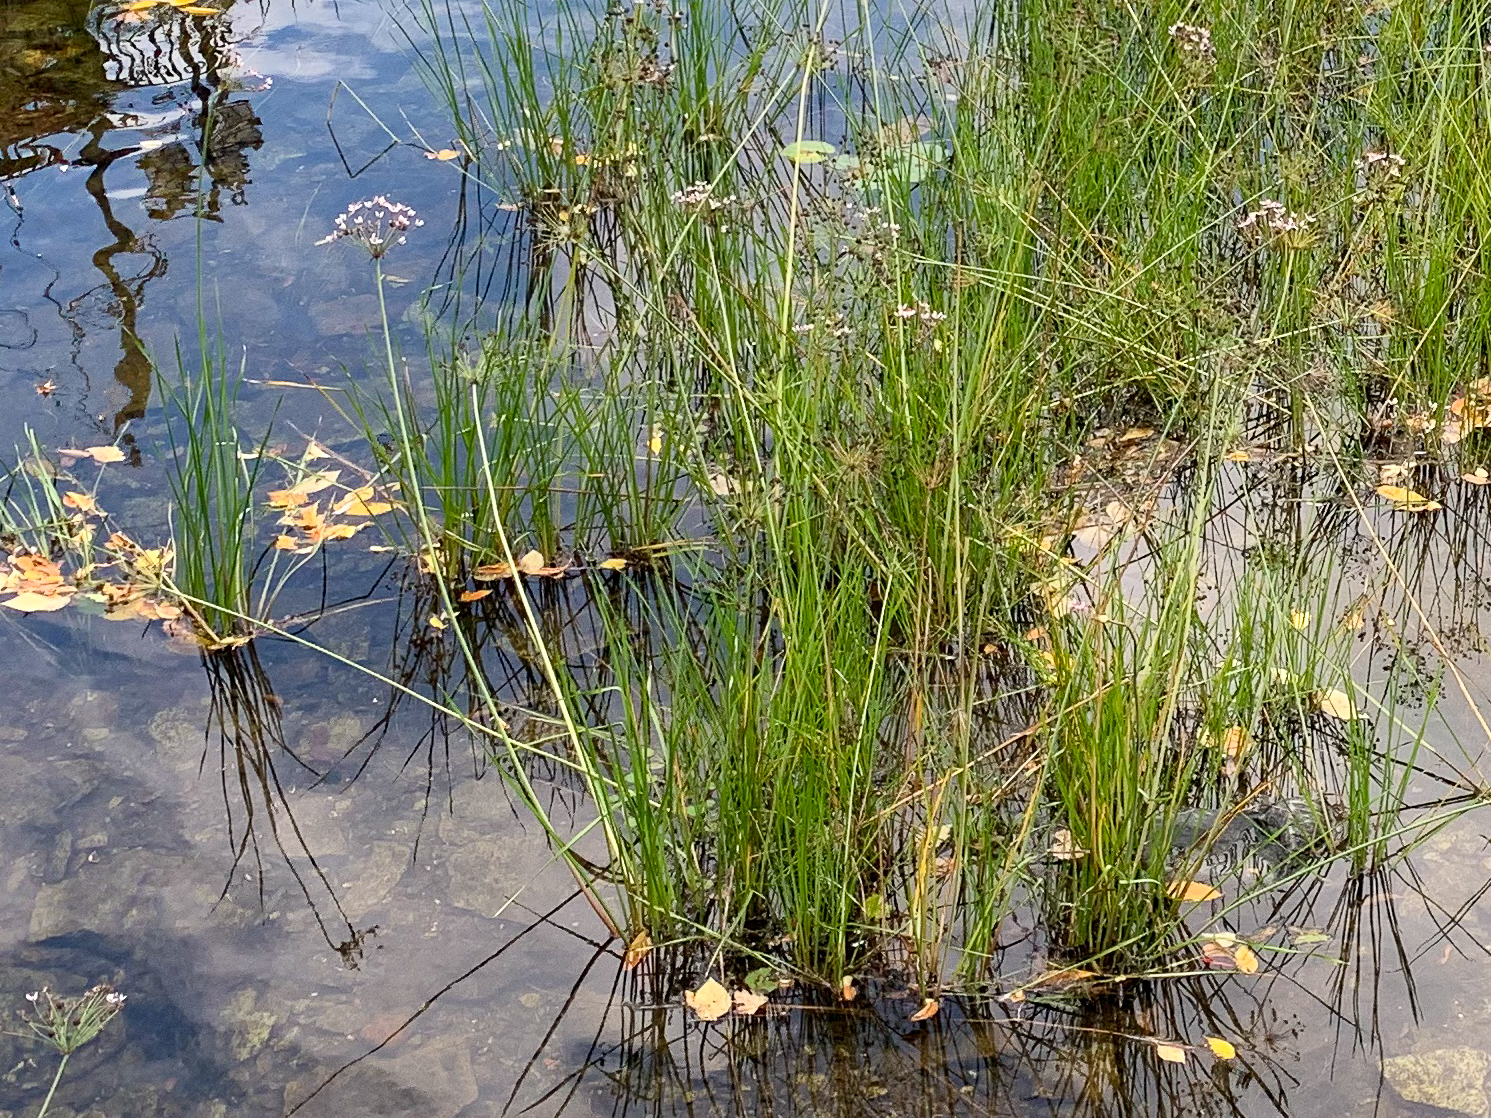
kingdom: Plantae
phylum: Tracheophyta
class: Liliopsida
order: Alismatales
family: Butomaceae
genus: Butomus
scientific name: Butomus umbellatus
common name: Flowering-rush
